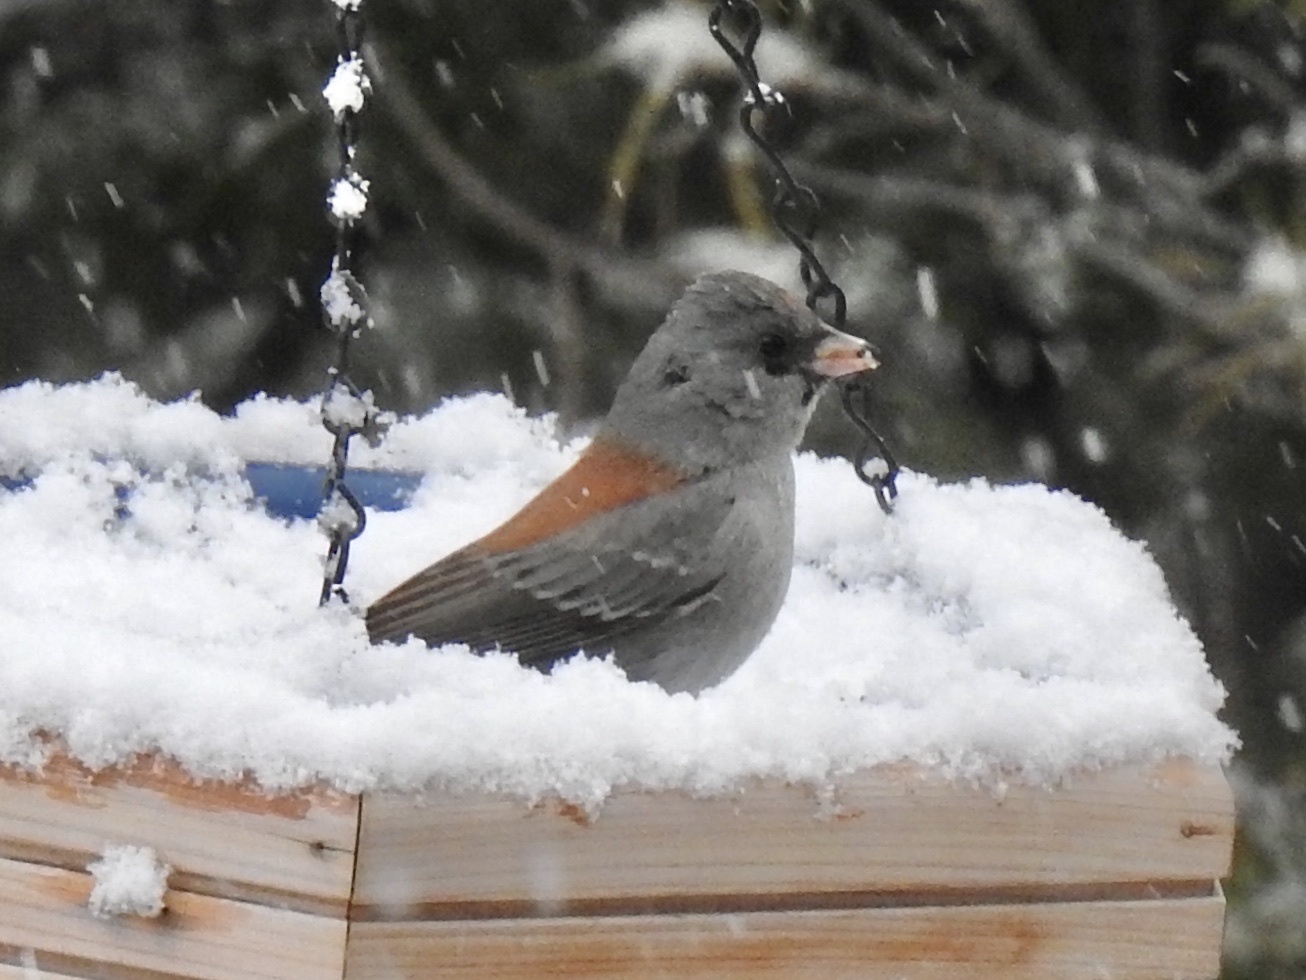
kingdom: Animalia
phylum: Chordata
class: Aves
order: Passeriformes
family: Passerellidae
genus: Junco
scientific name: Junco hyemalis
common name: Dark-eyed junco
